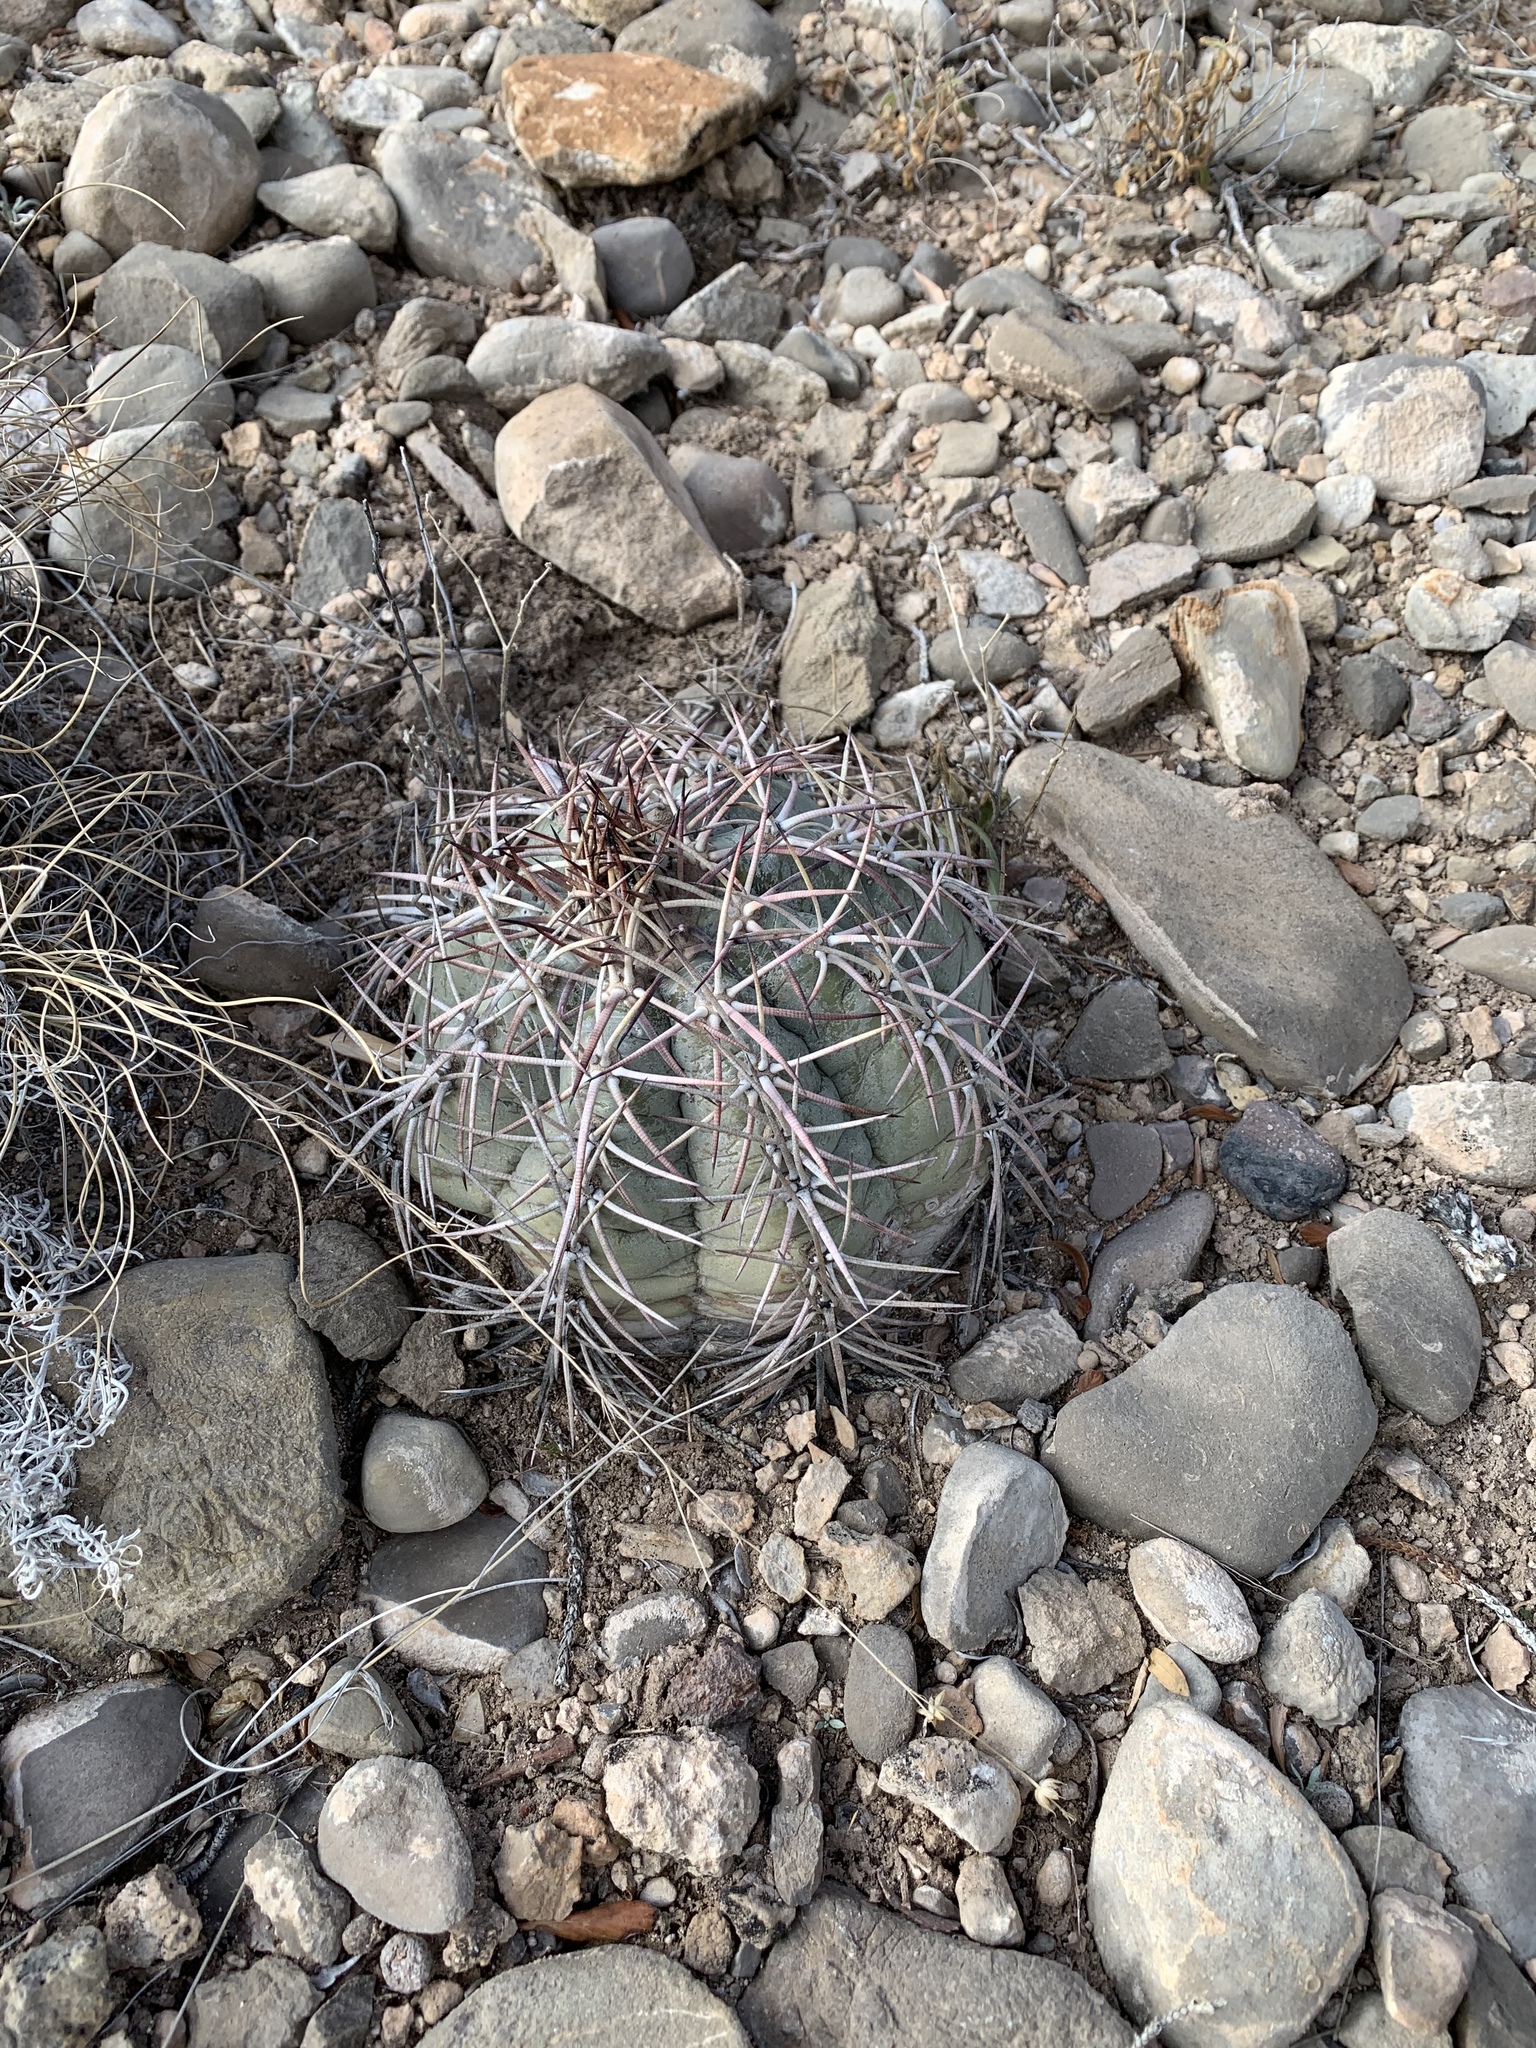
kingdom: Plantae
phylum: Tracheophyta
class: Magnoliopsida
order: Caryophyllales
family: Cactaceae
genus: Echinocactus
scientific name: Echinocactus horizonthalonius
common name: Devilshead
